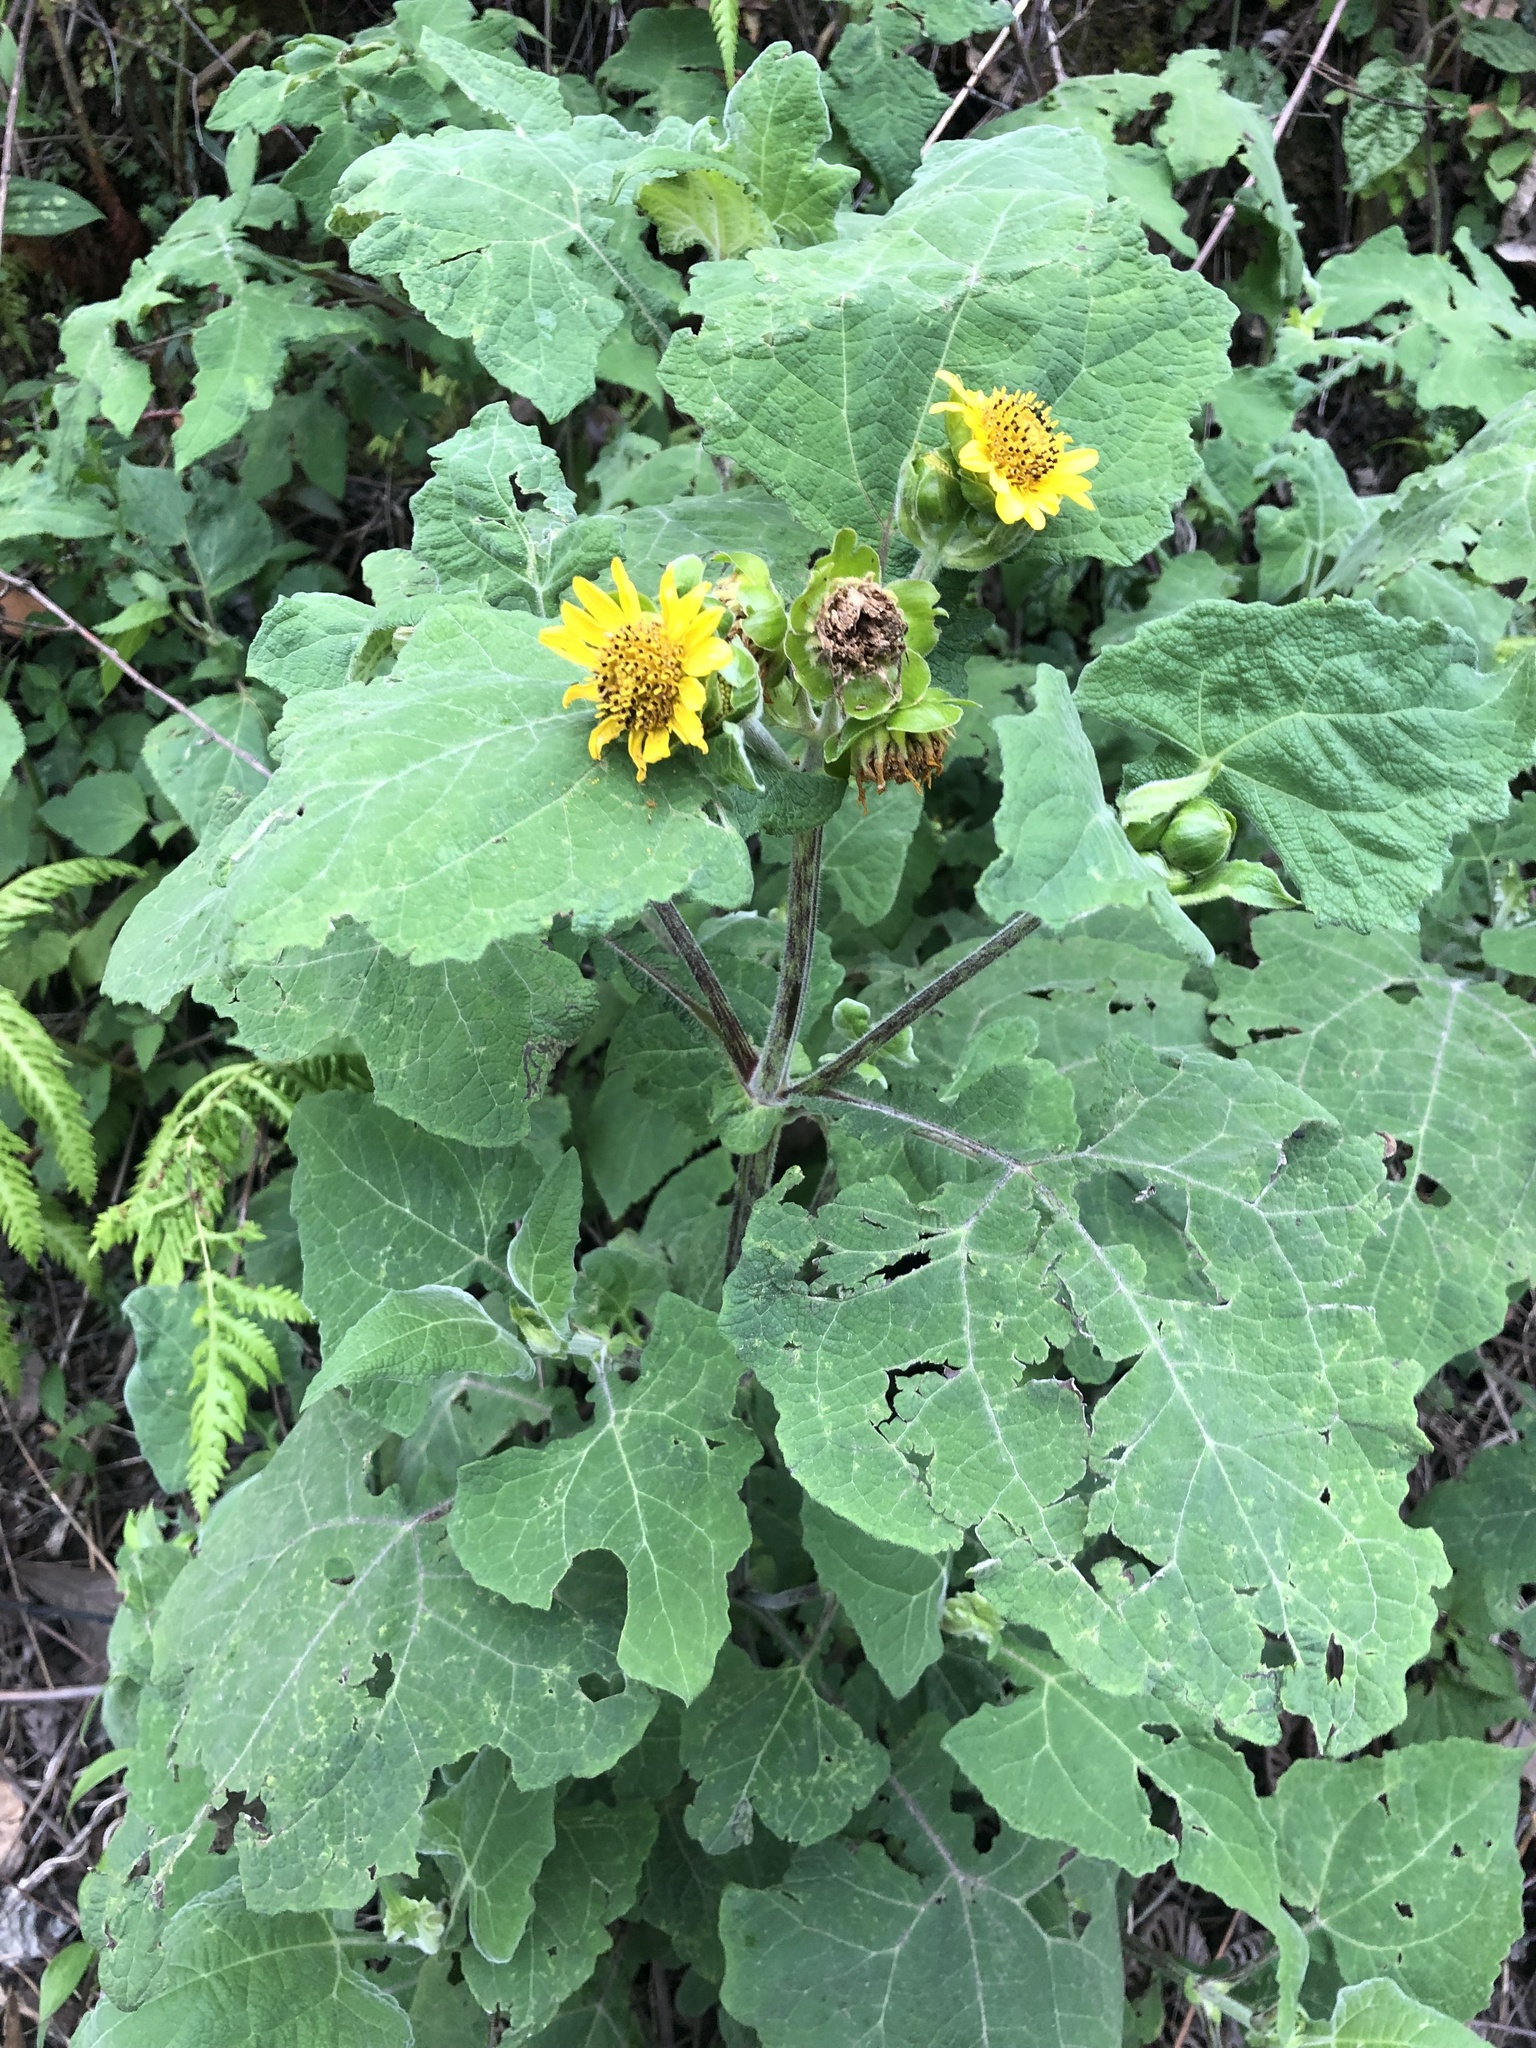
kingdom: Plantae
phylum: Tracheophyta
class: Magnoliopsida
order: Asterales
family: Asteraceae
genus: Smallanthus
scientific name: Smallanthus maculatus
